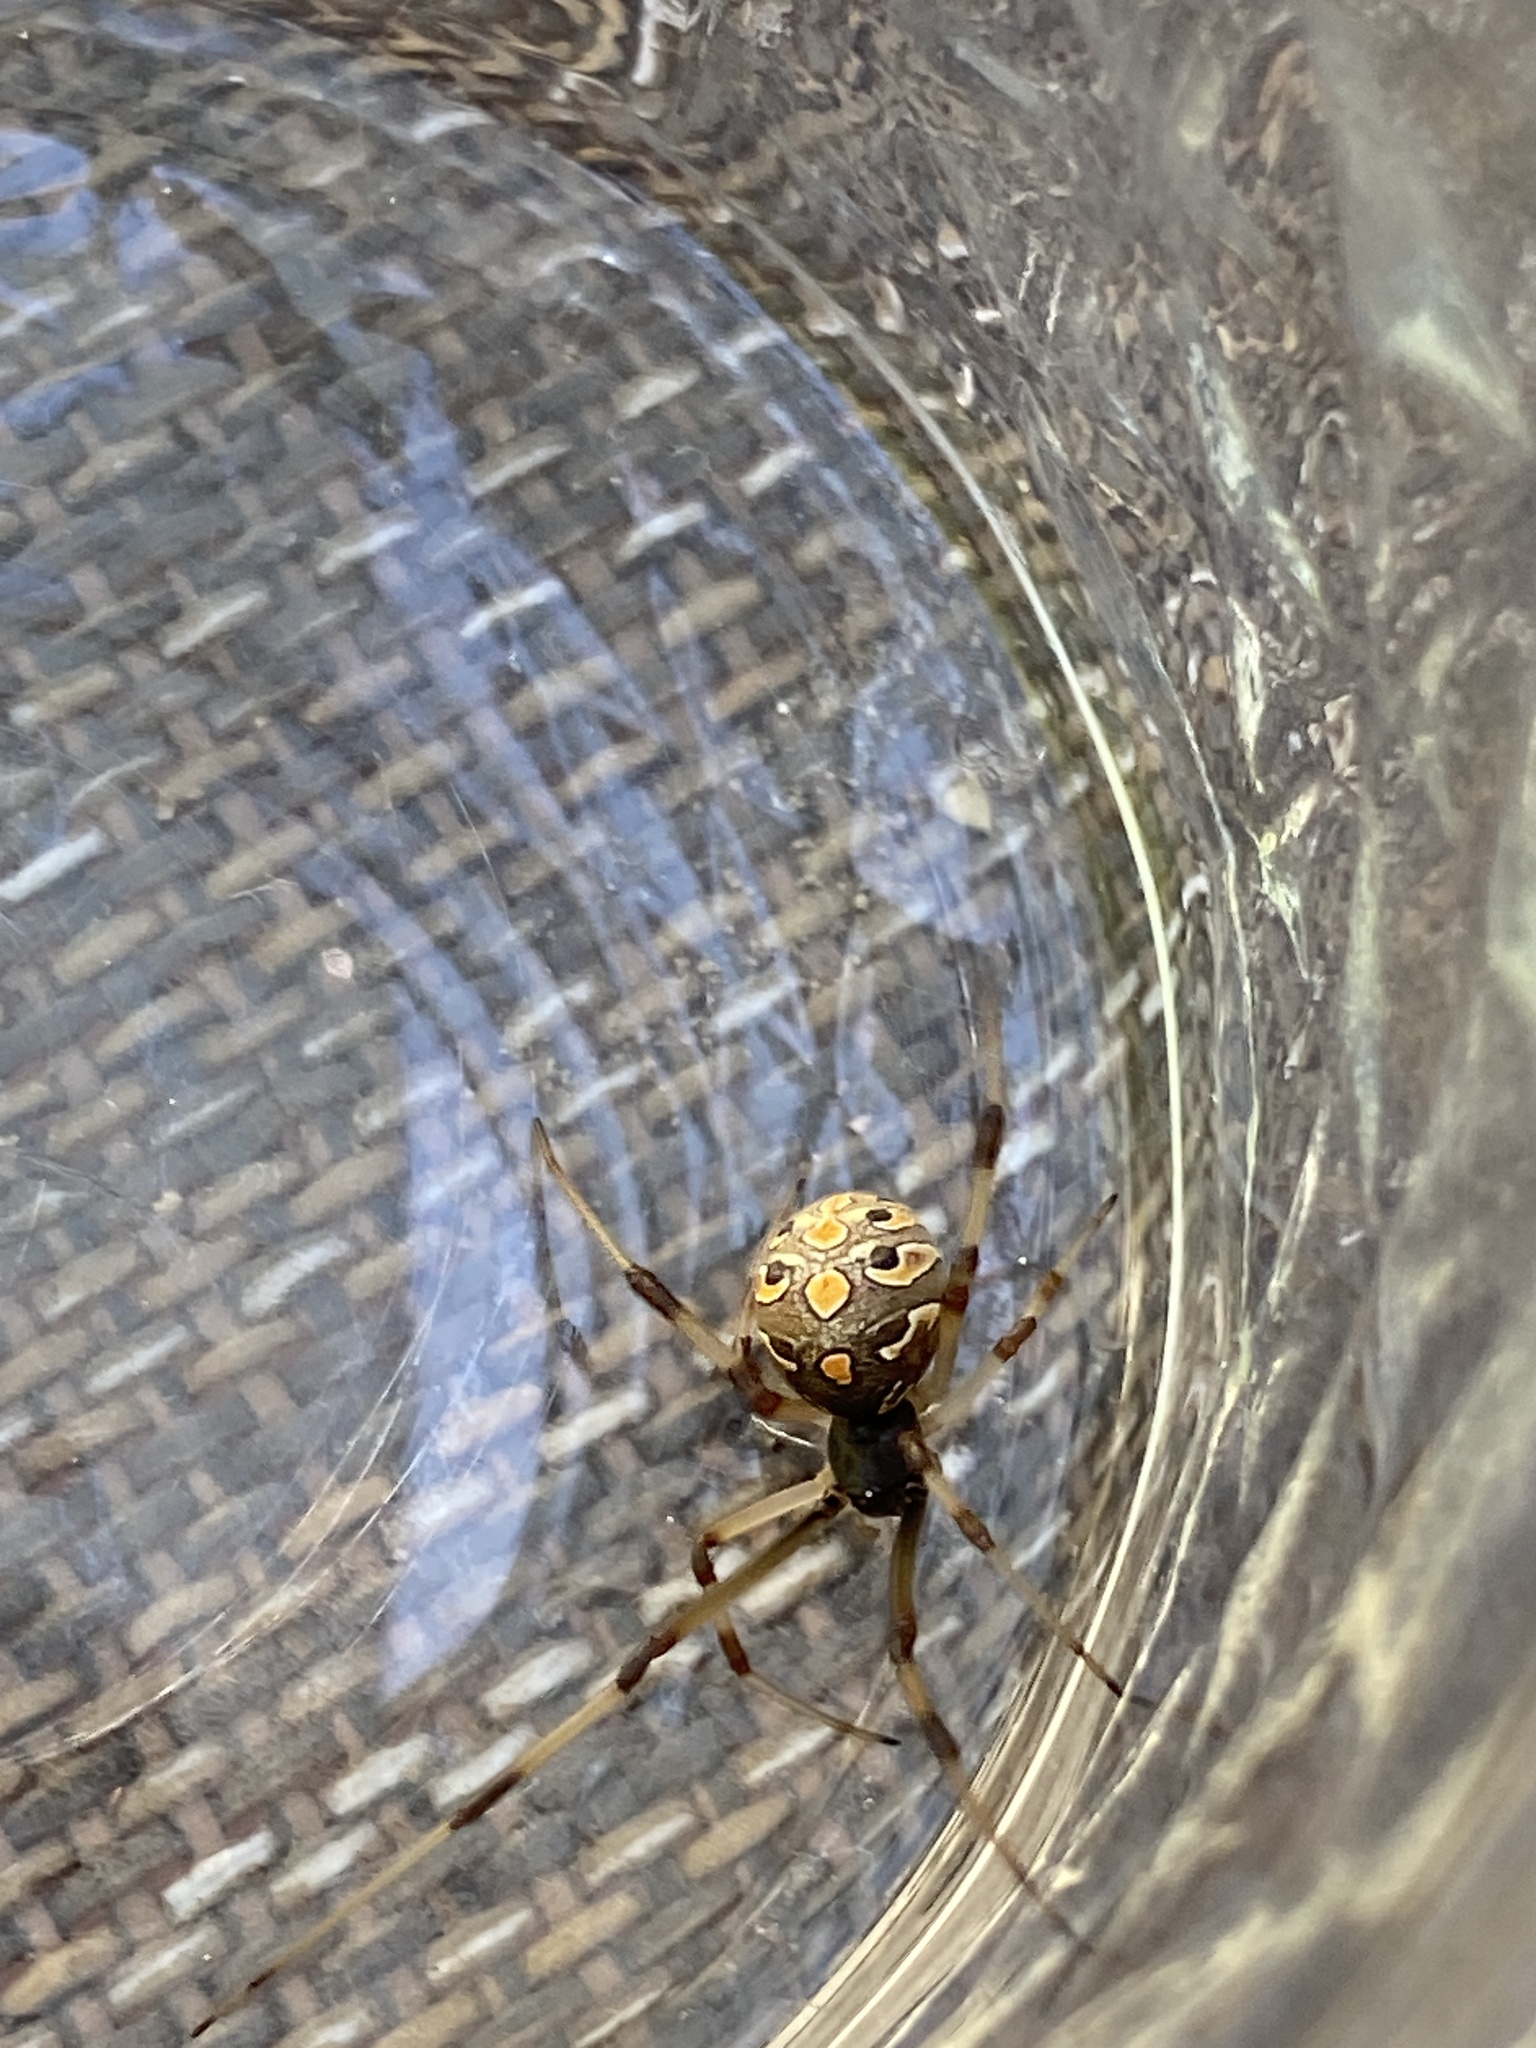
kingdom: Animalia
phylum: Arthropoda
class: Arachnida
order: Araneae
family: Theridiidae
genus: Latrodectus
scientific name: Latrodectus geometricus
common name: Brown widow spider
